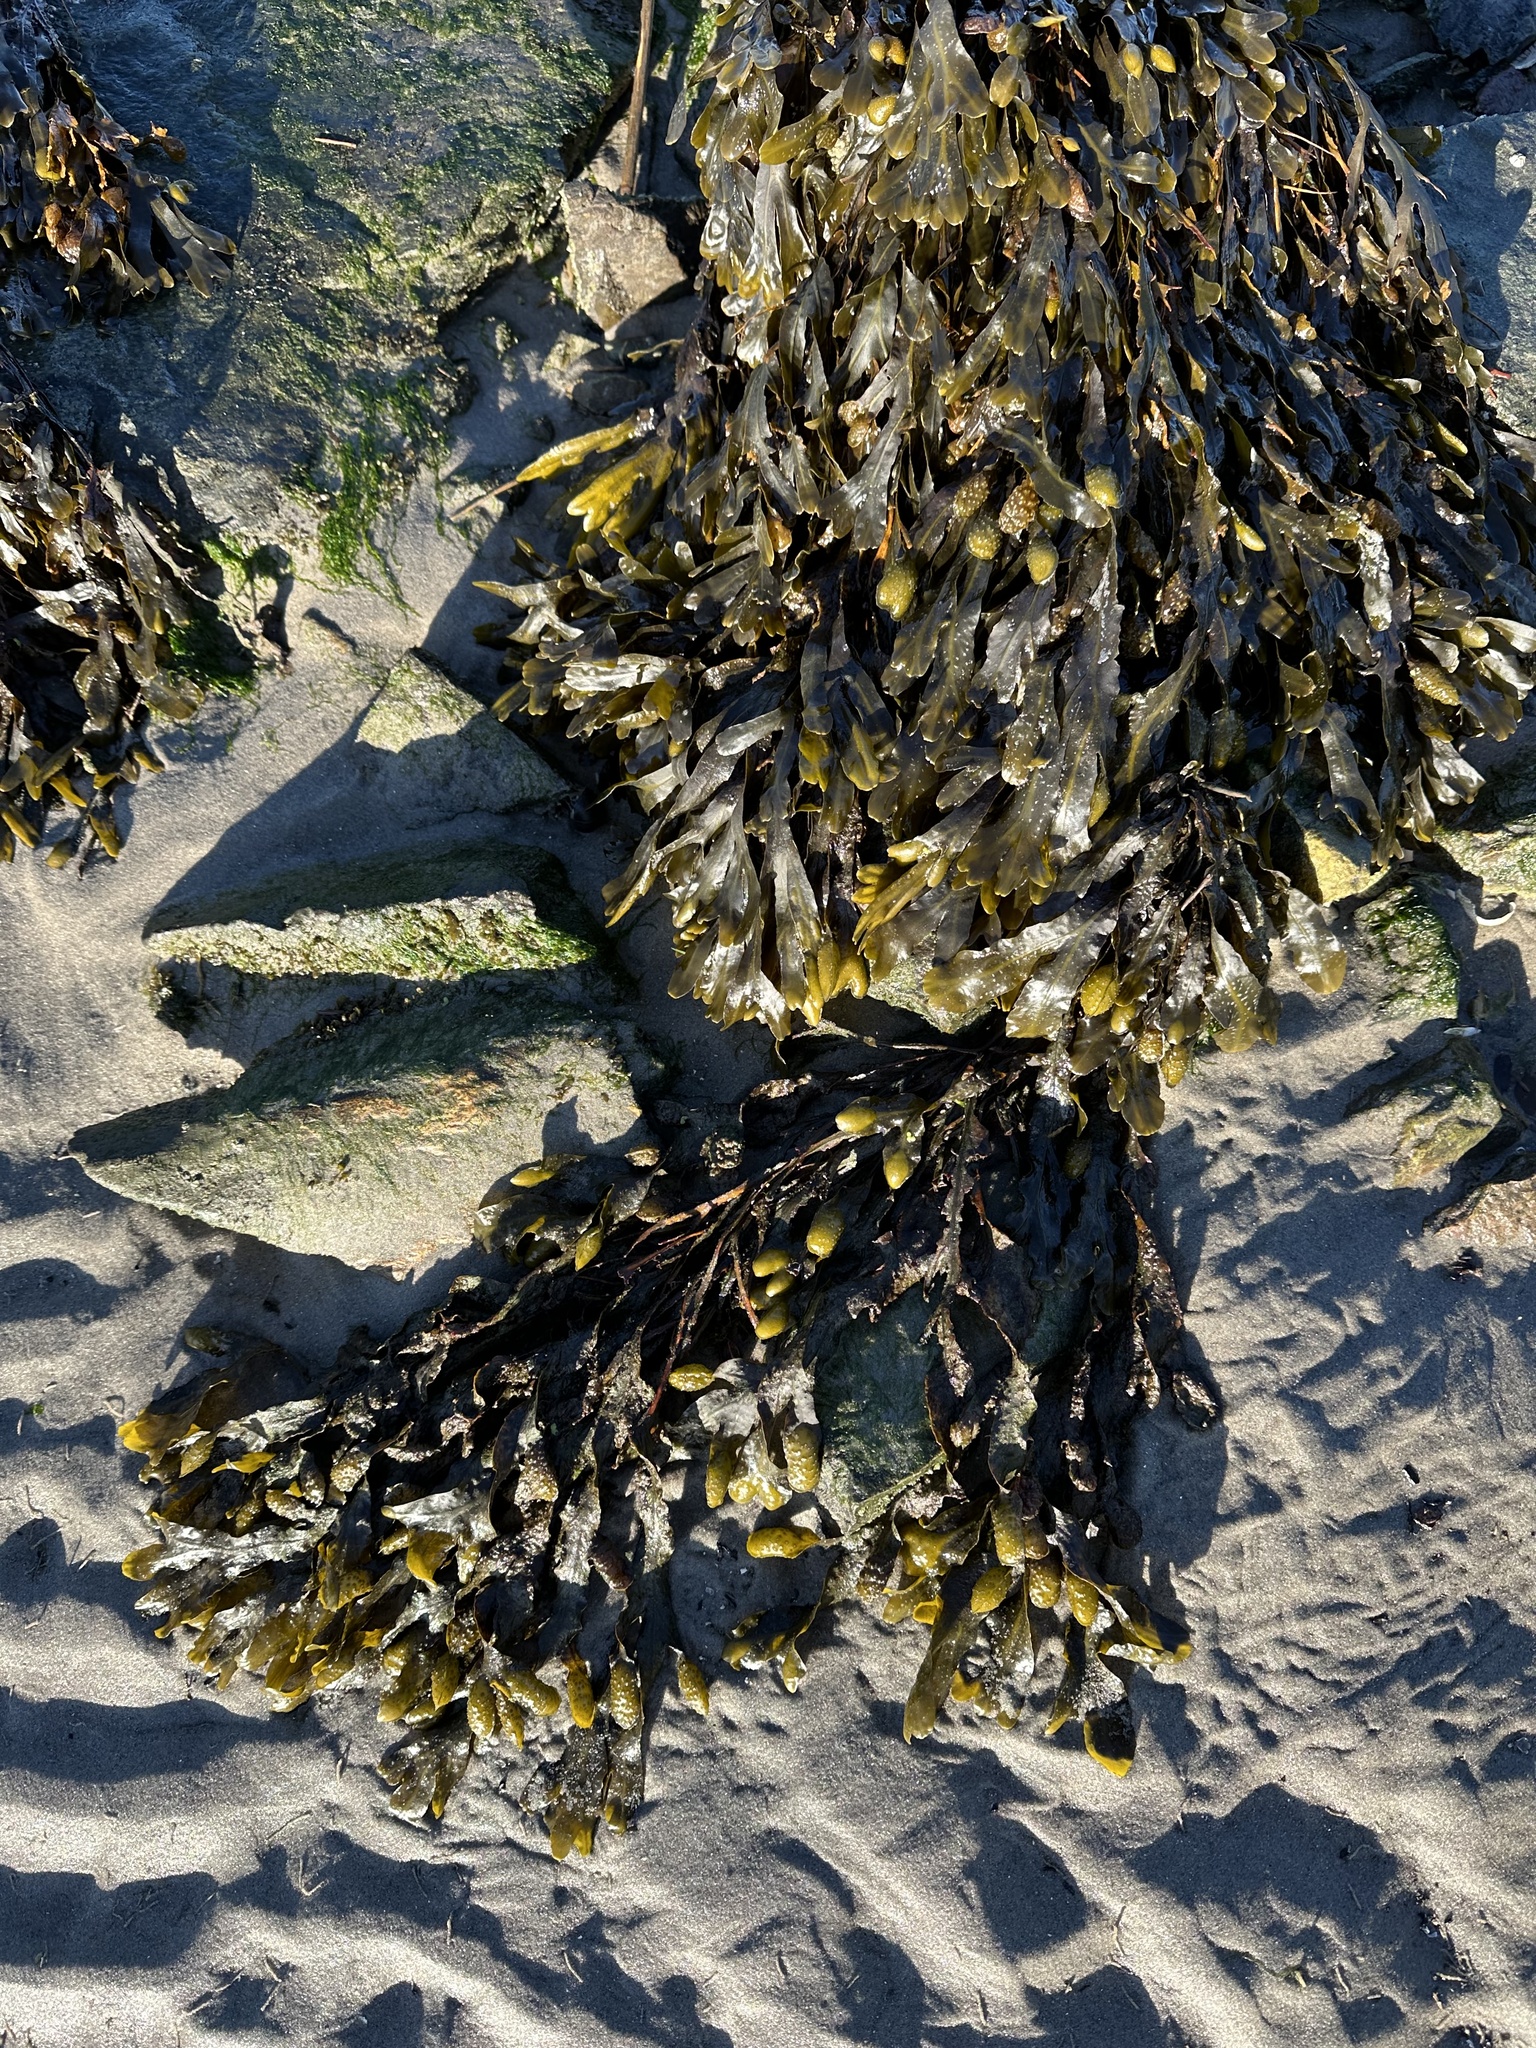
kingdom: Chromista
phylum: Ochrophyta
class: Phaeophyceae
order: Fucales
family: Fucaceae
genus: Fucus
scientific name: Fucus spiralis
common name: Spiral wrack
